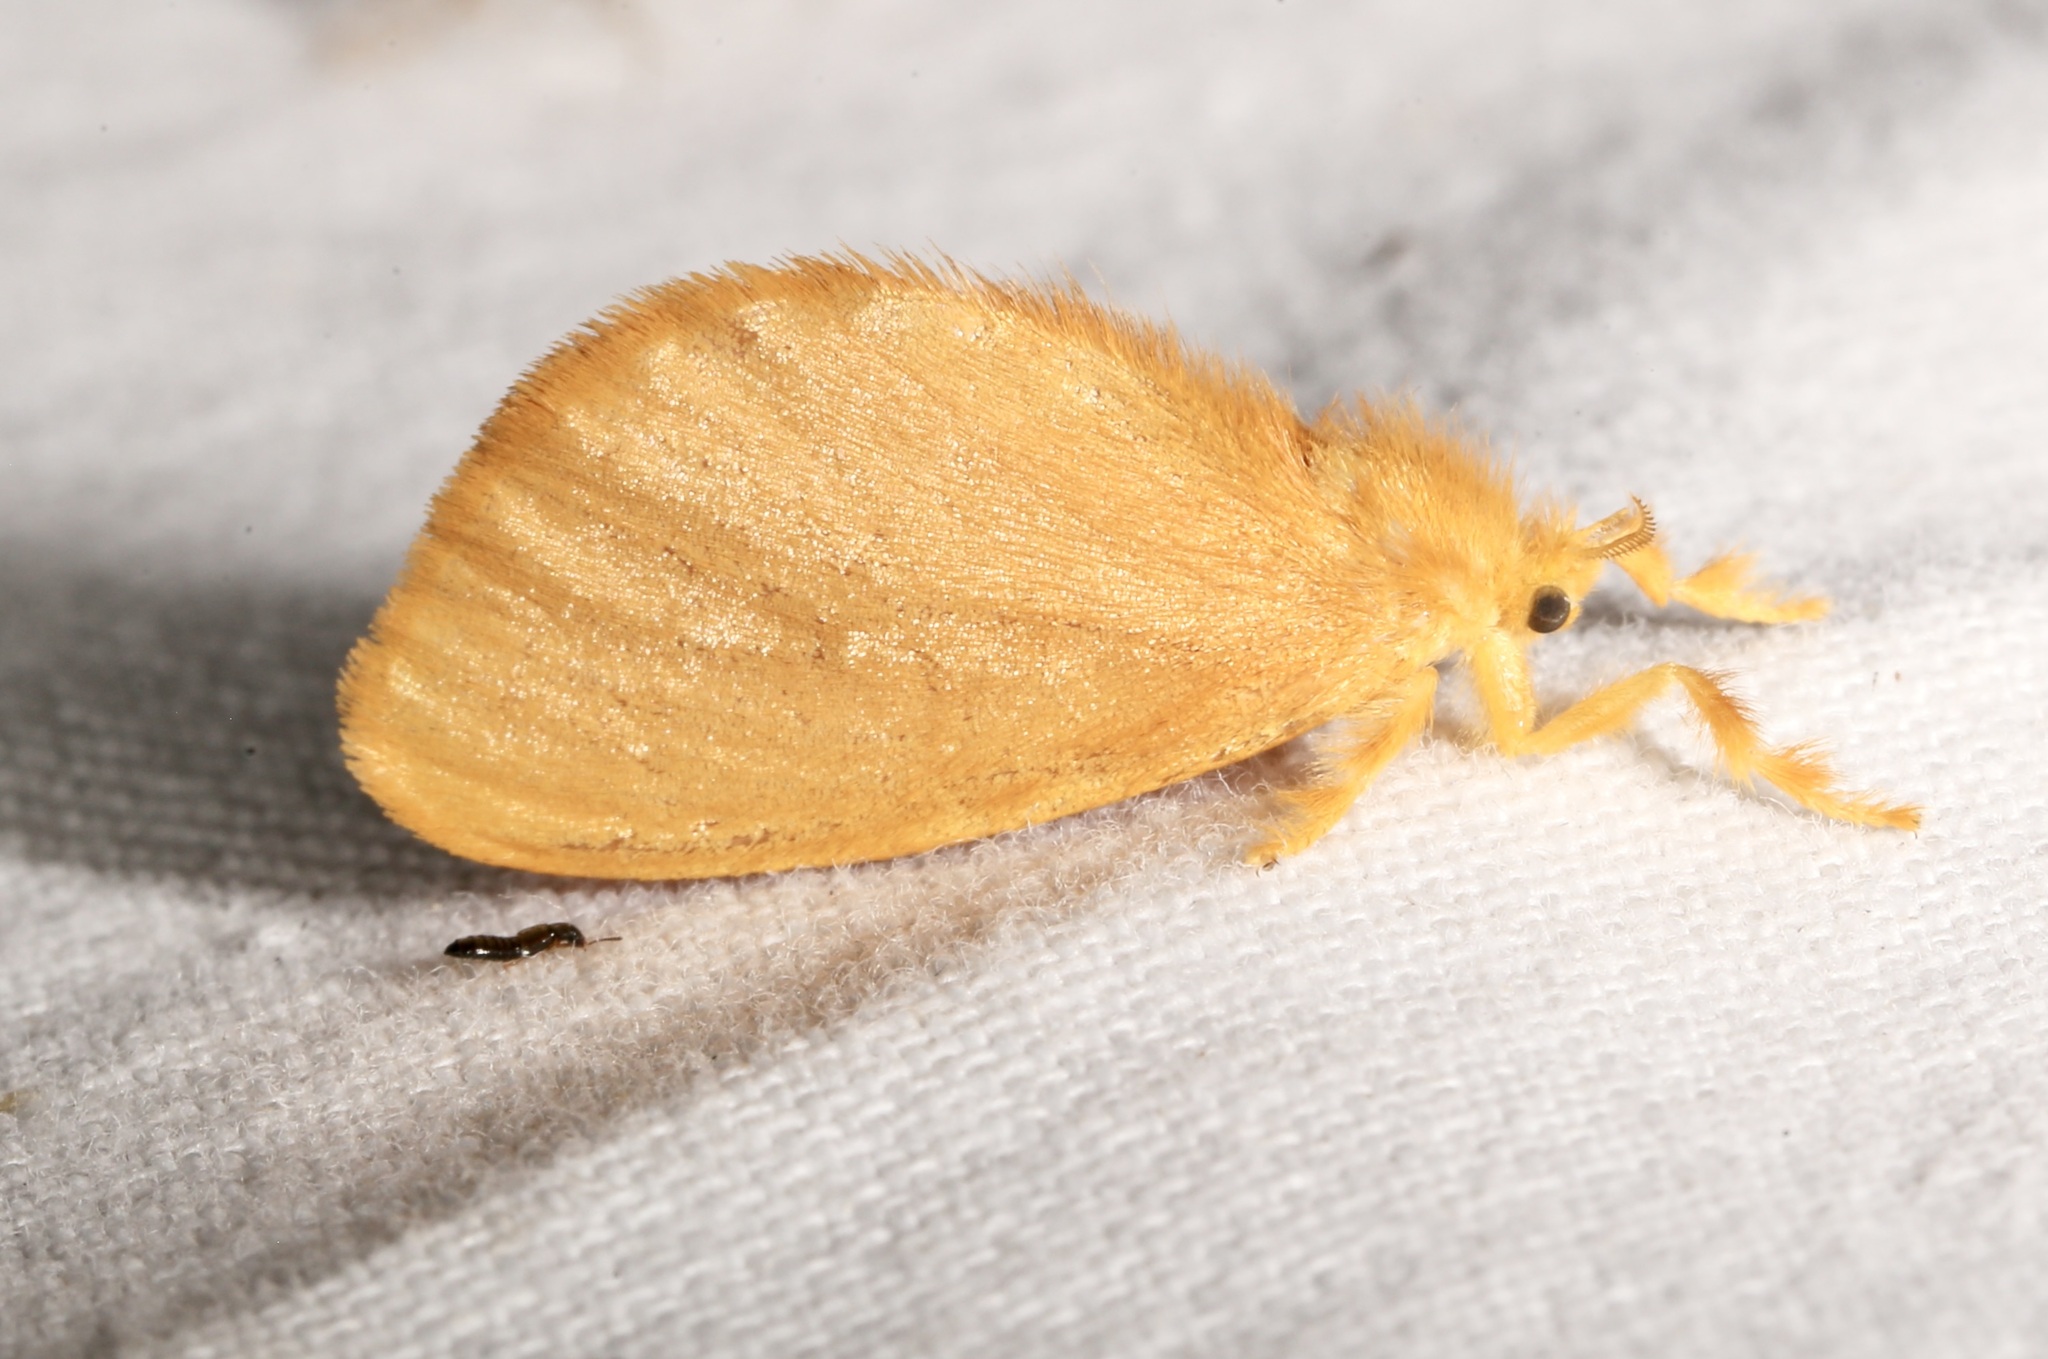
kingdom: Animalia
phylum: Arthropoda
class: Insecta
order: Lepidoptera
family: Dalceridae
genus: Dalcerides
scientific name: Dalcerides ingenita
